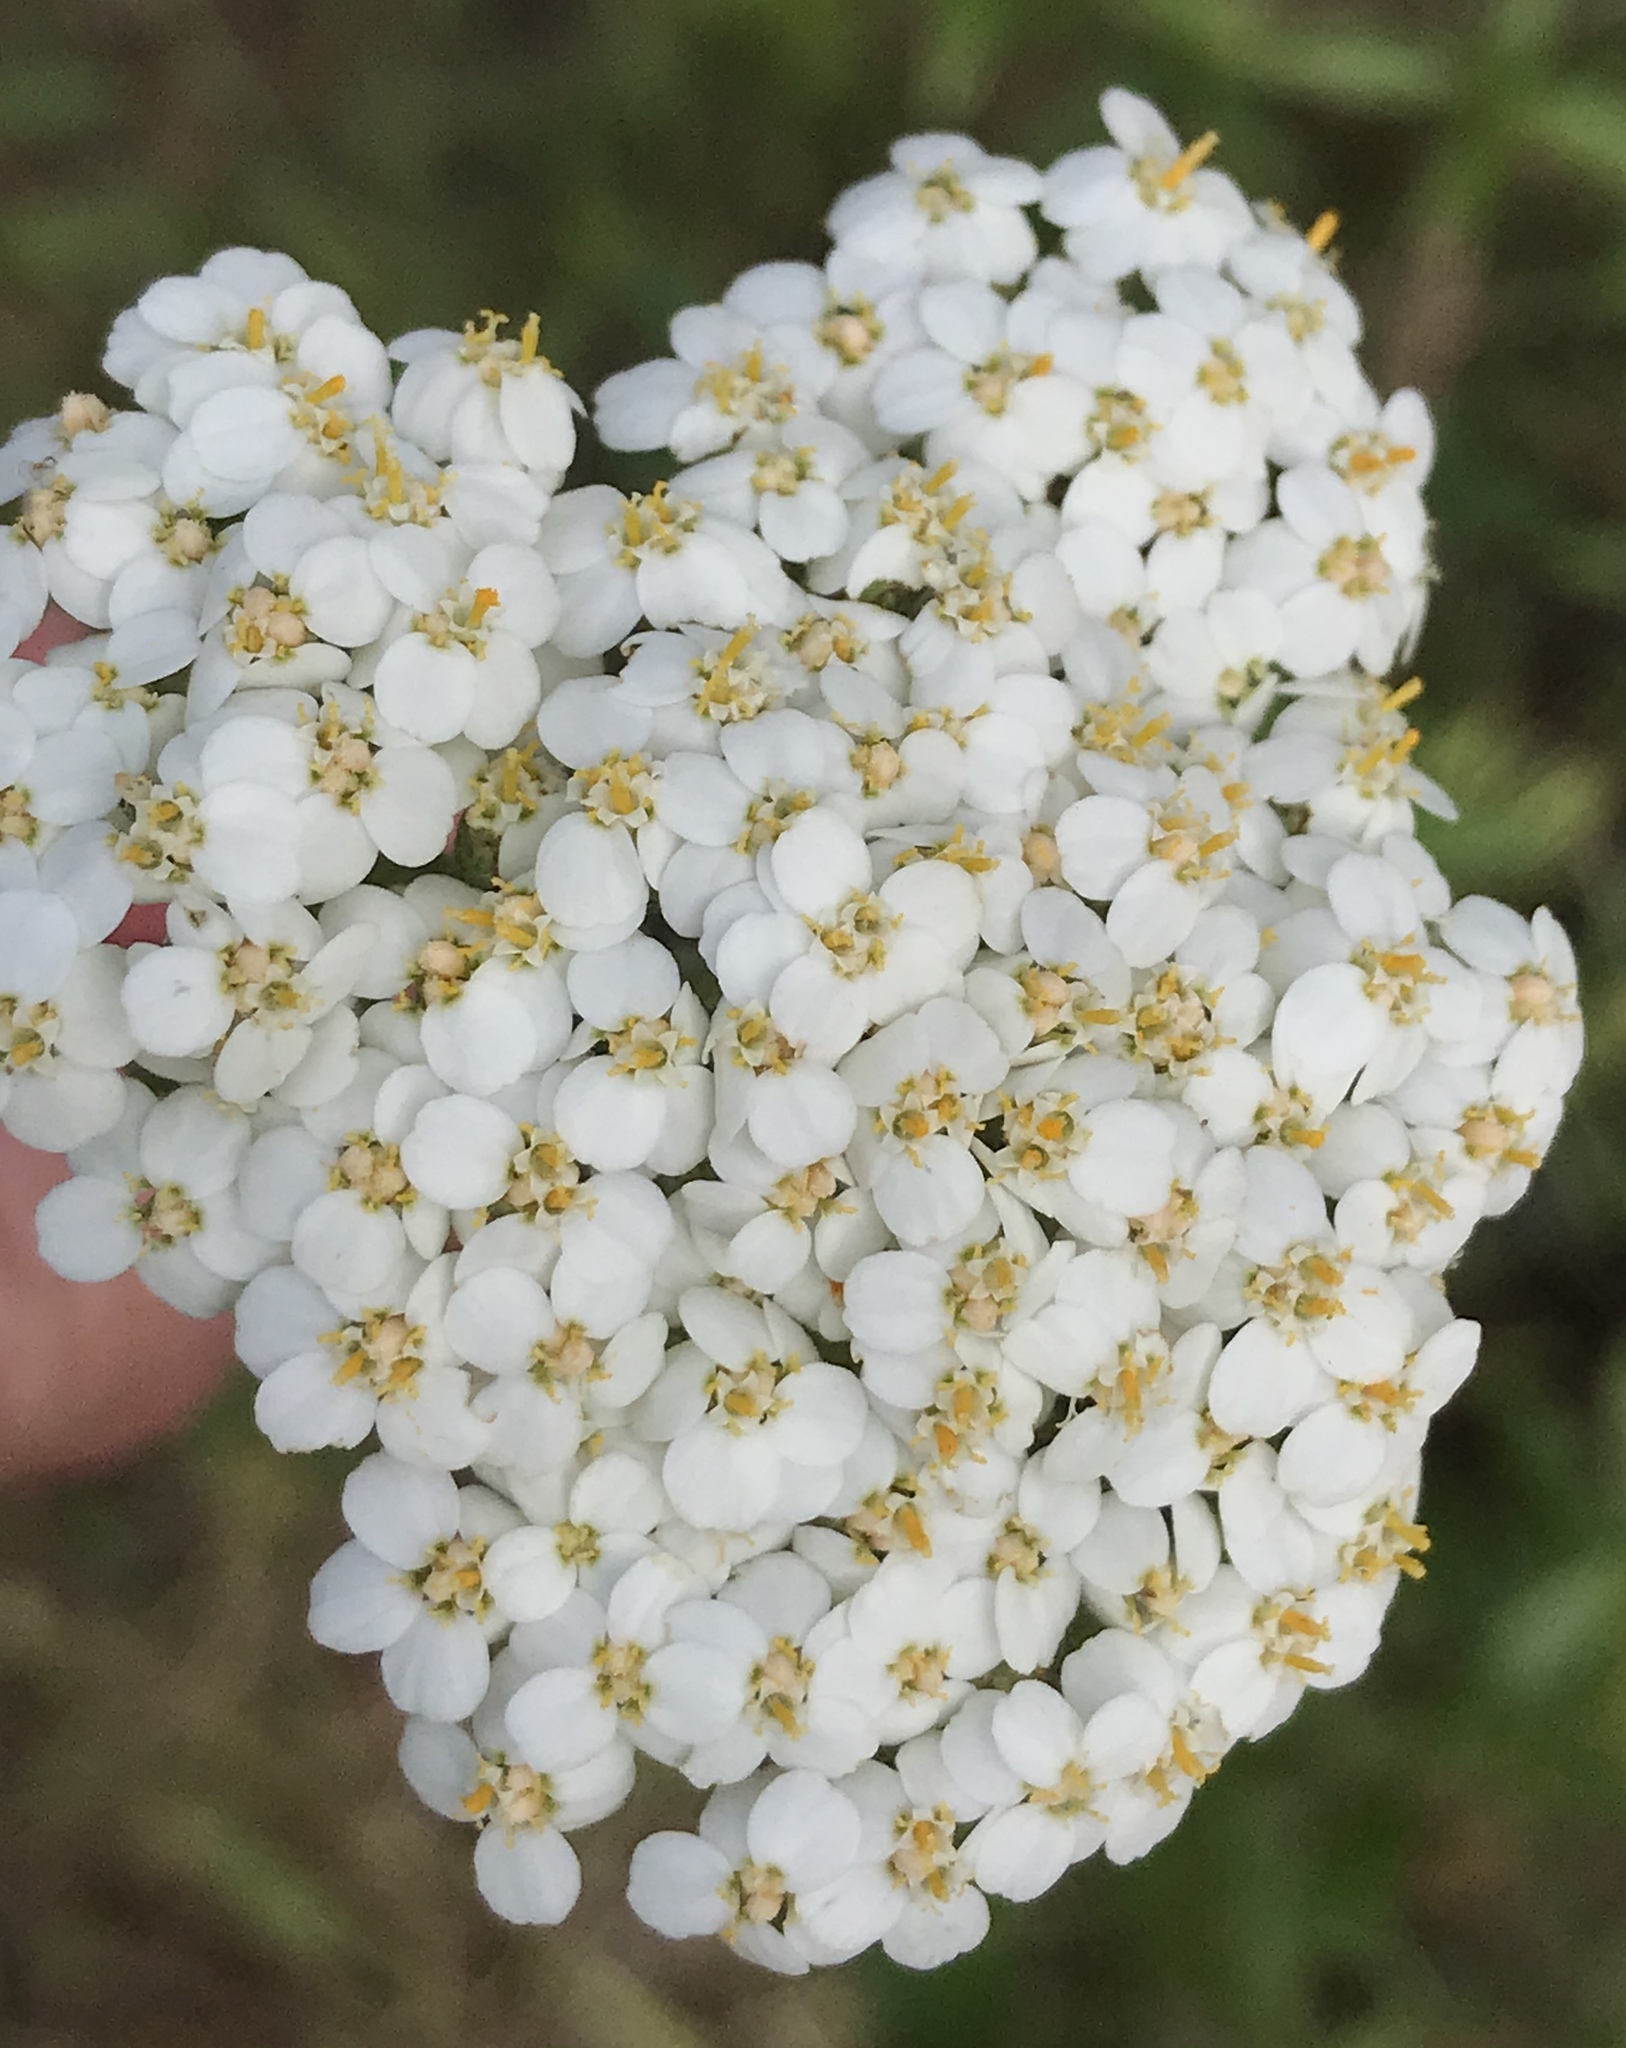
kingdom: Plantae
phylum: Tracheophyta
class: Magnoliopsida
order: Asterales
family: Asteraceae
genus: Achillea
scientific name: Achillea millefolium
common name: Yarrow
